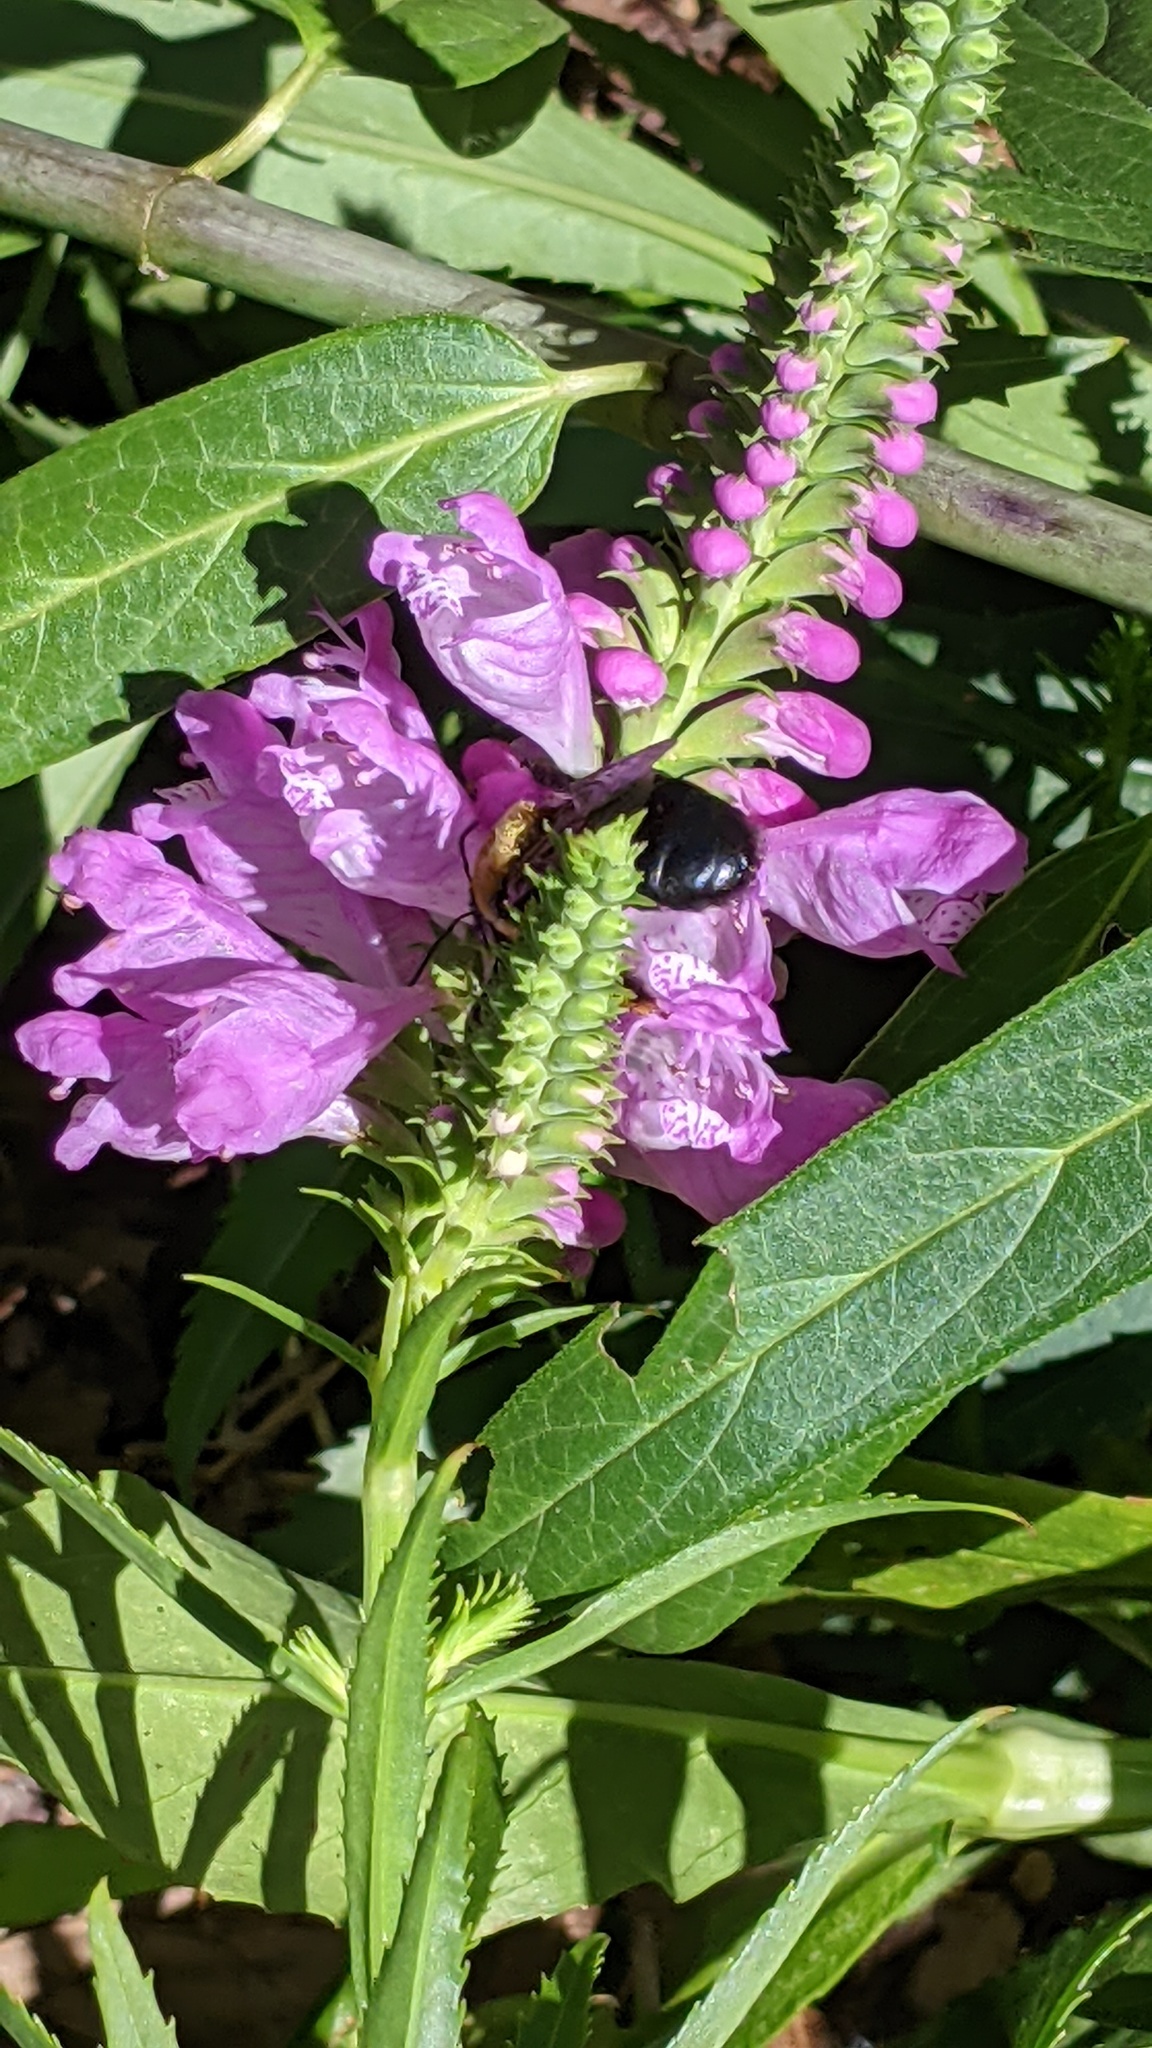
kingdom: Animalia
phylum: Arthropoda
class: Insecta
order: Hymenoptera
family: Apidae
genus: Xylocopa
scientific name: Xylocopa virginica
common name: Carpenter bee
